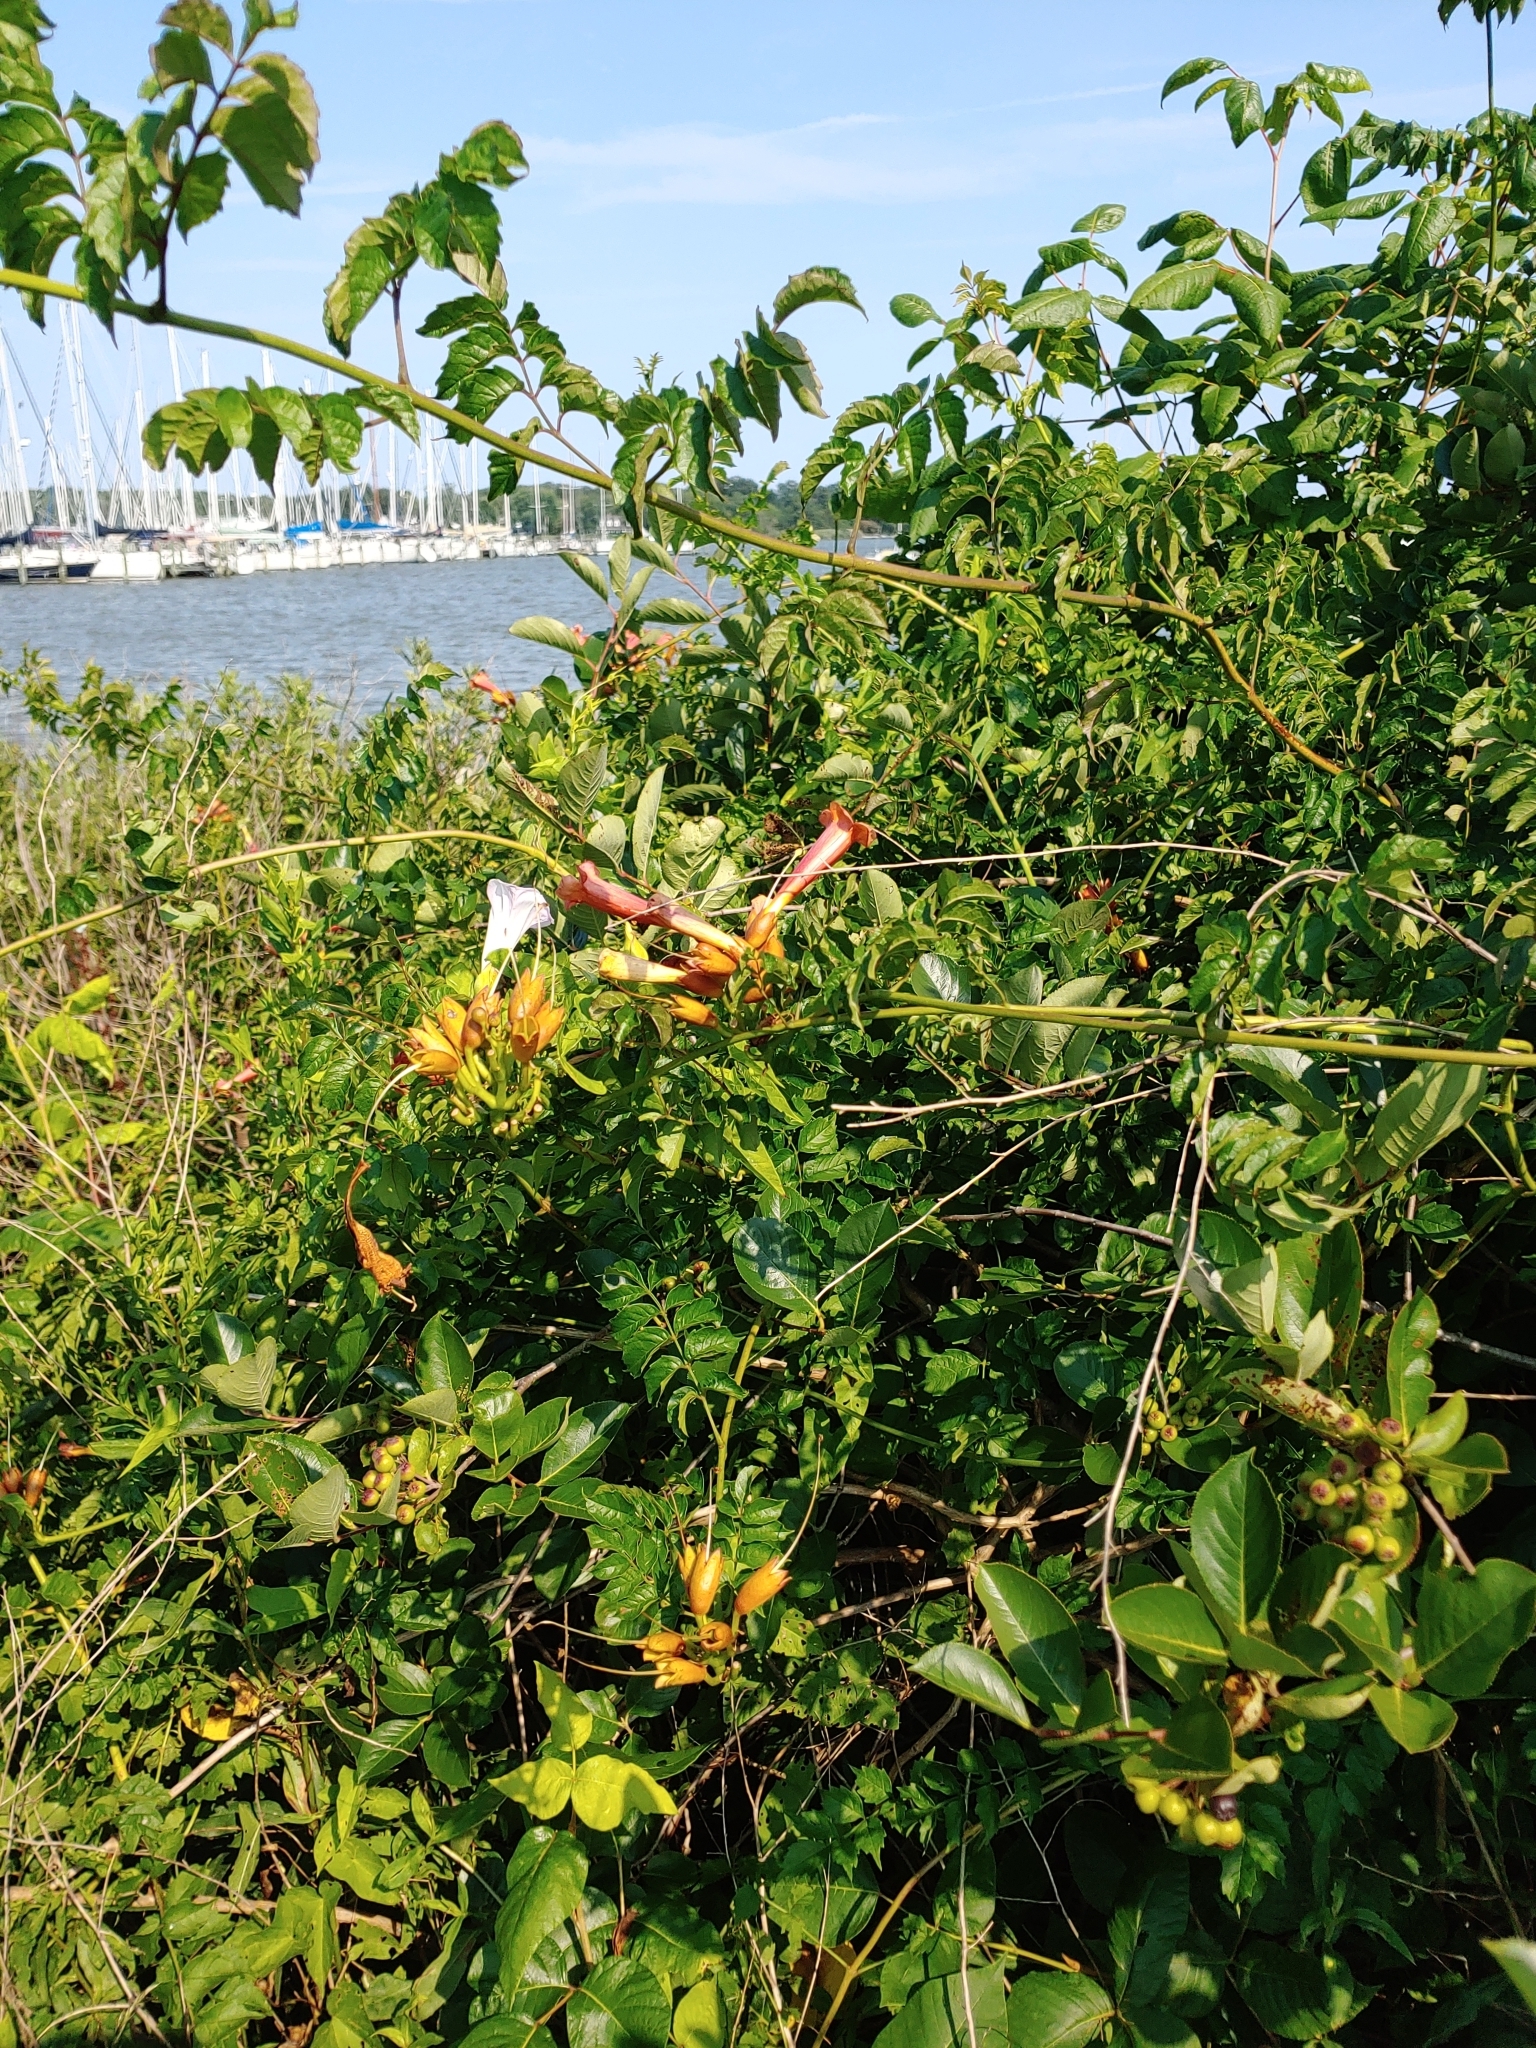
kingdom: Plantae
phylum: Tracheophyta
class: Magnoliopsida
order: Lamiales
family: Bignoniaceae
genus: Campsis
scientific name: Campsis radicans
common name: Trumpet-creeper
